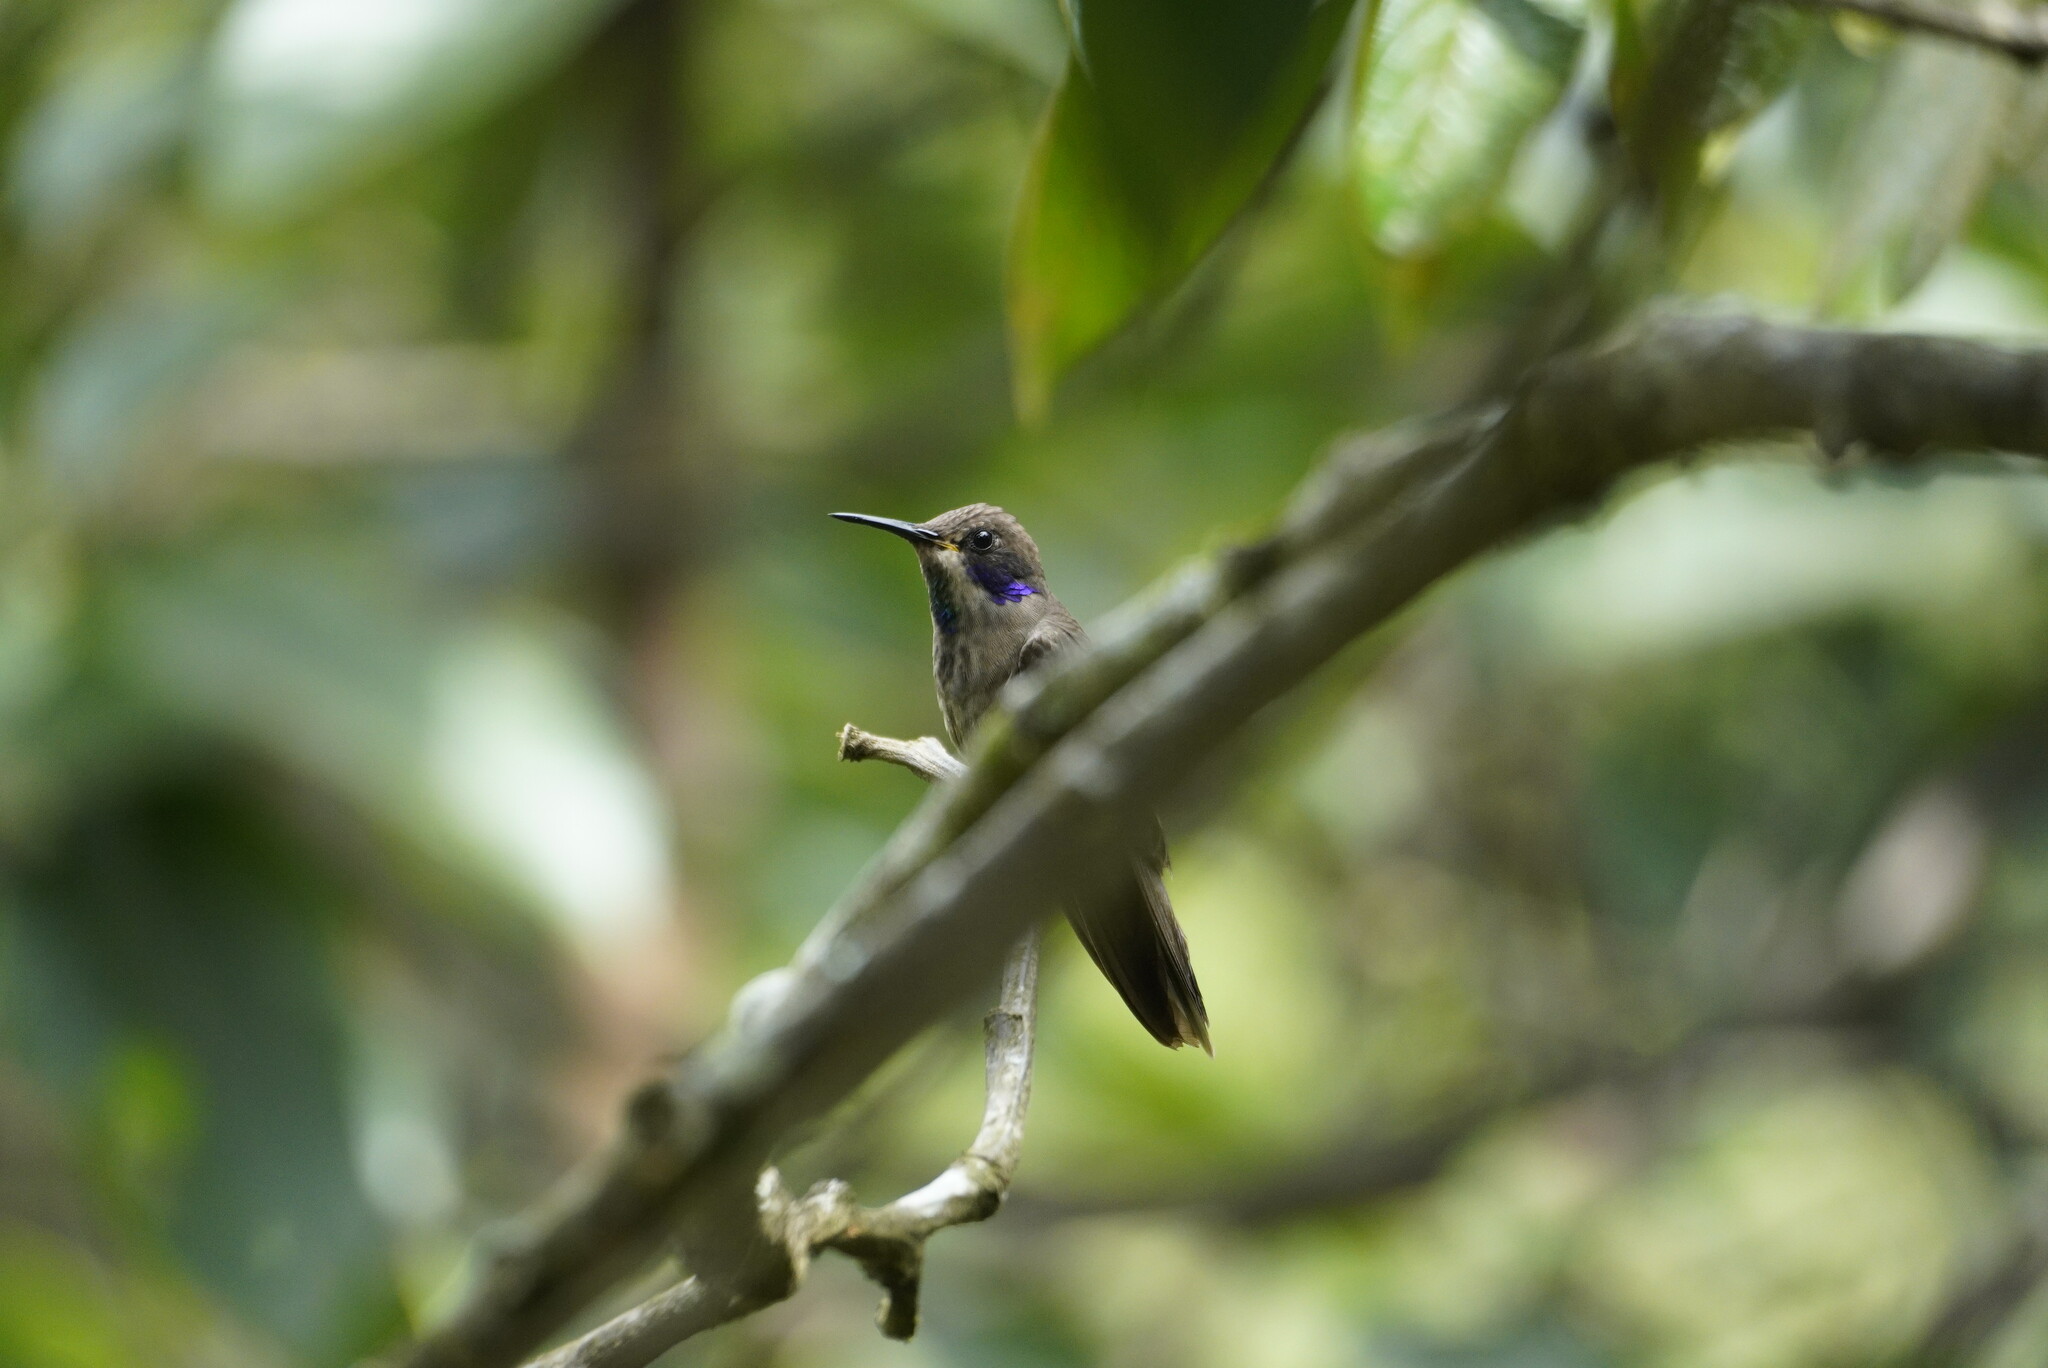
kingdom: Animalia
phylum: Chordata
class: Aves
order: Apodiformes
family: Trochilidae
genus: Colibri
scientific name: Colibri delphinae
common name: Brown violetear
